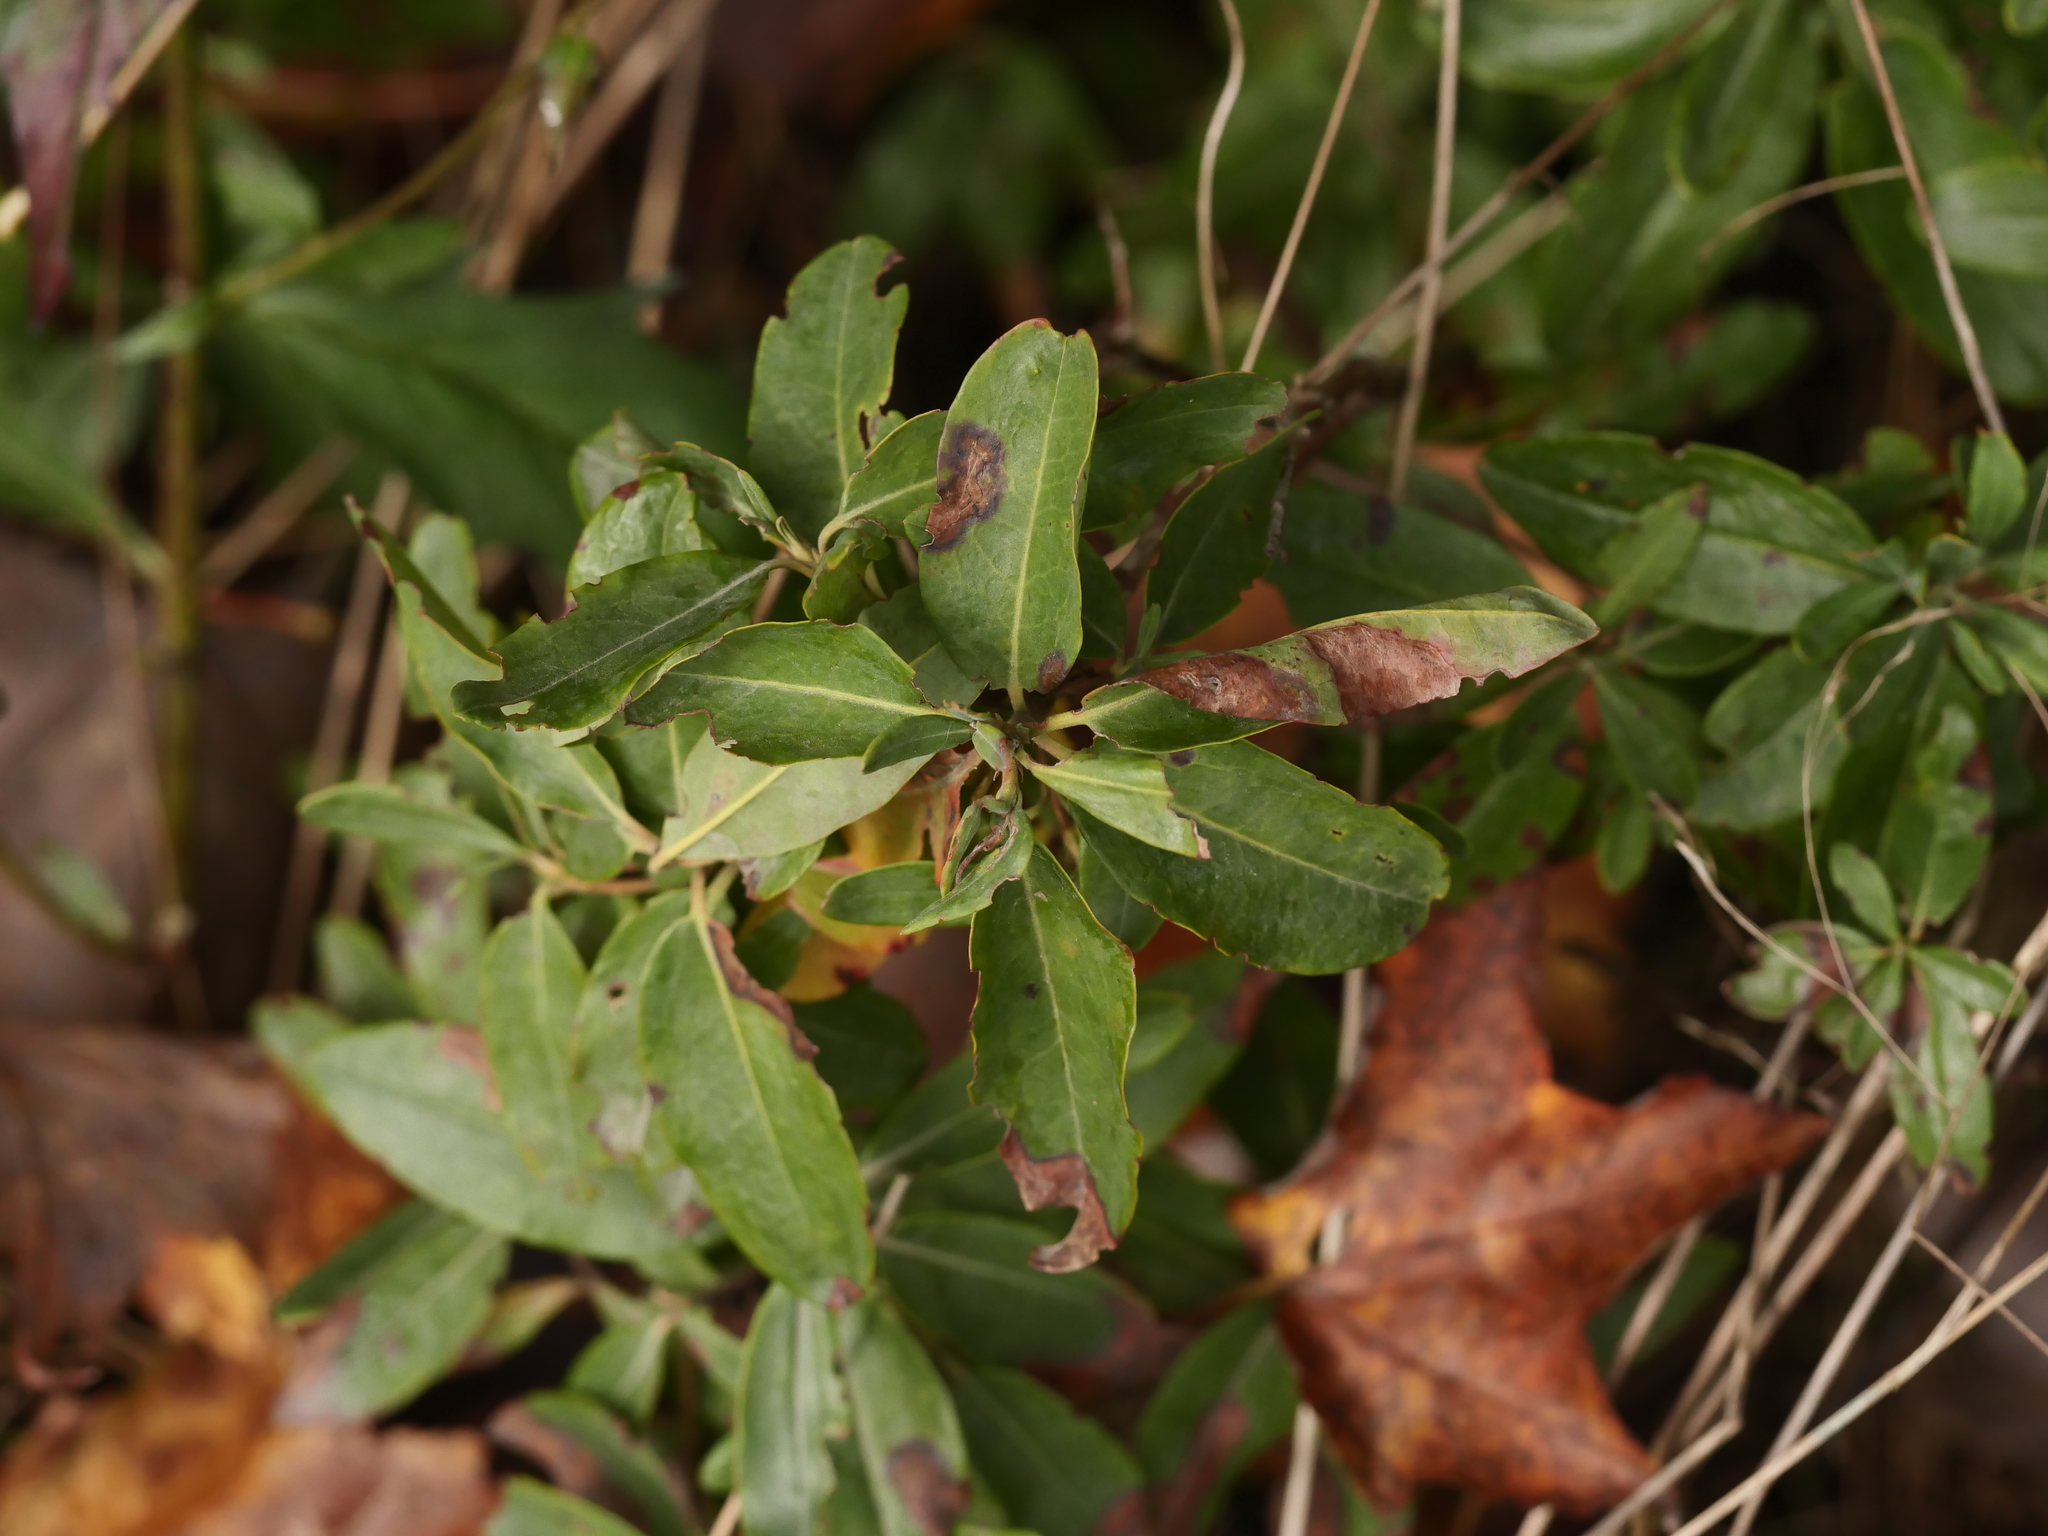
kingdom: Plantae
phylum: Tracheophyta
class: Magnoliopsida
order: Ericales
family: Ericaceae
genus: Kalmia
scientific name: Kalmia angustifolia
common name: Sheep-laurel
